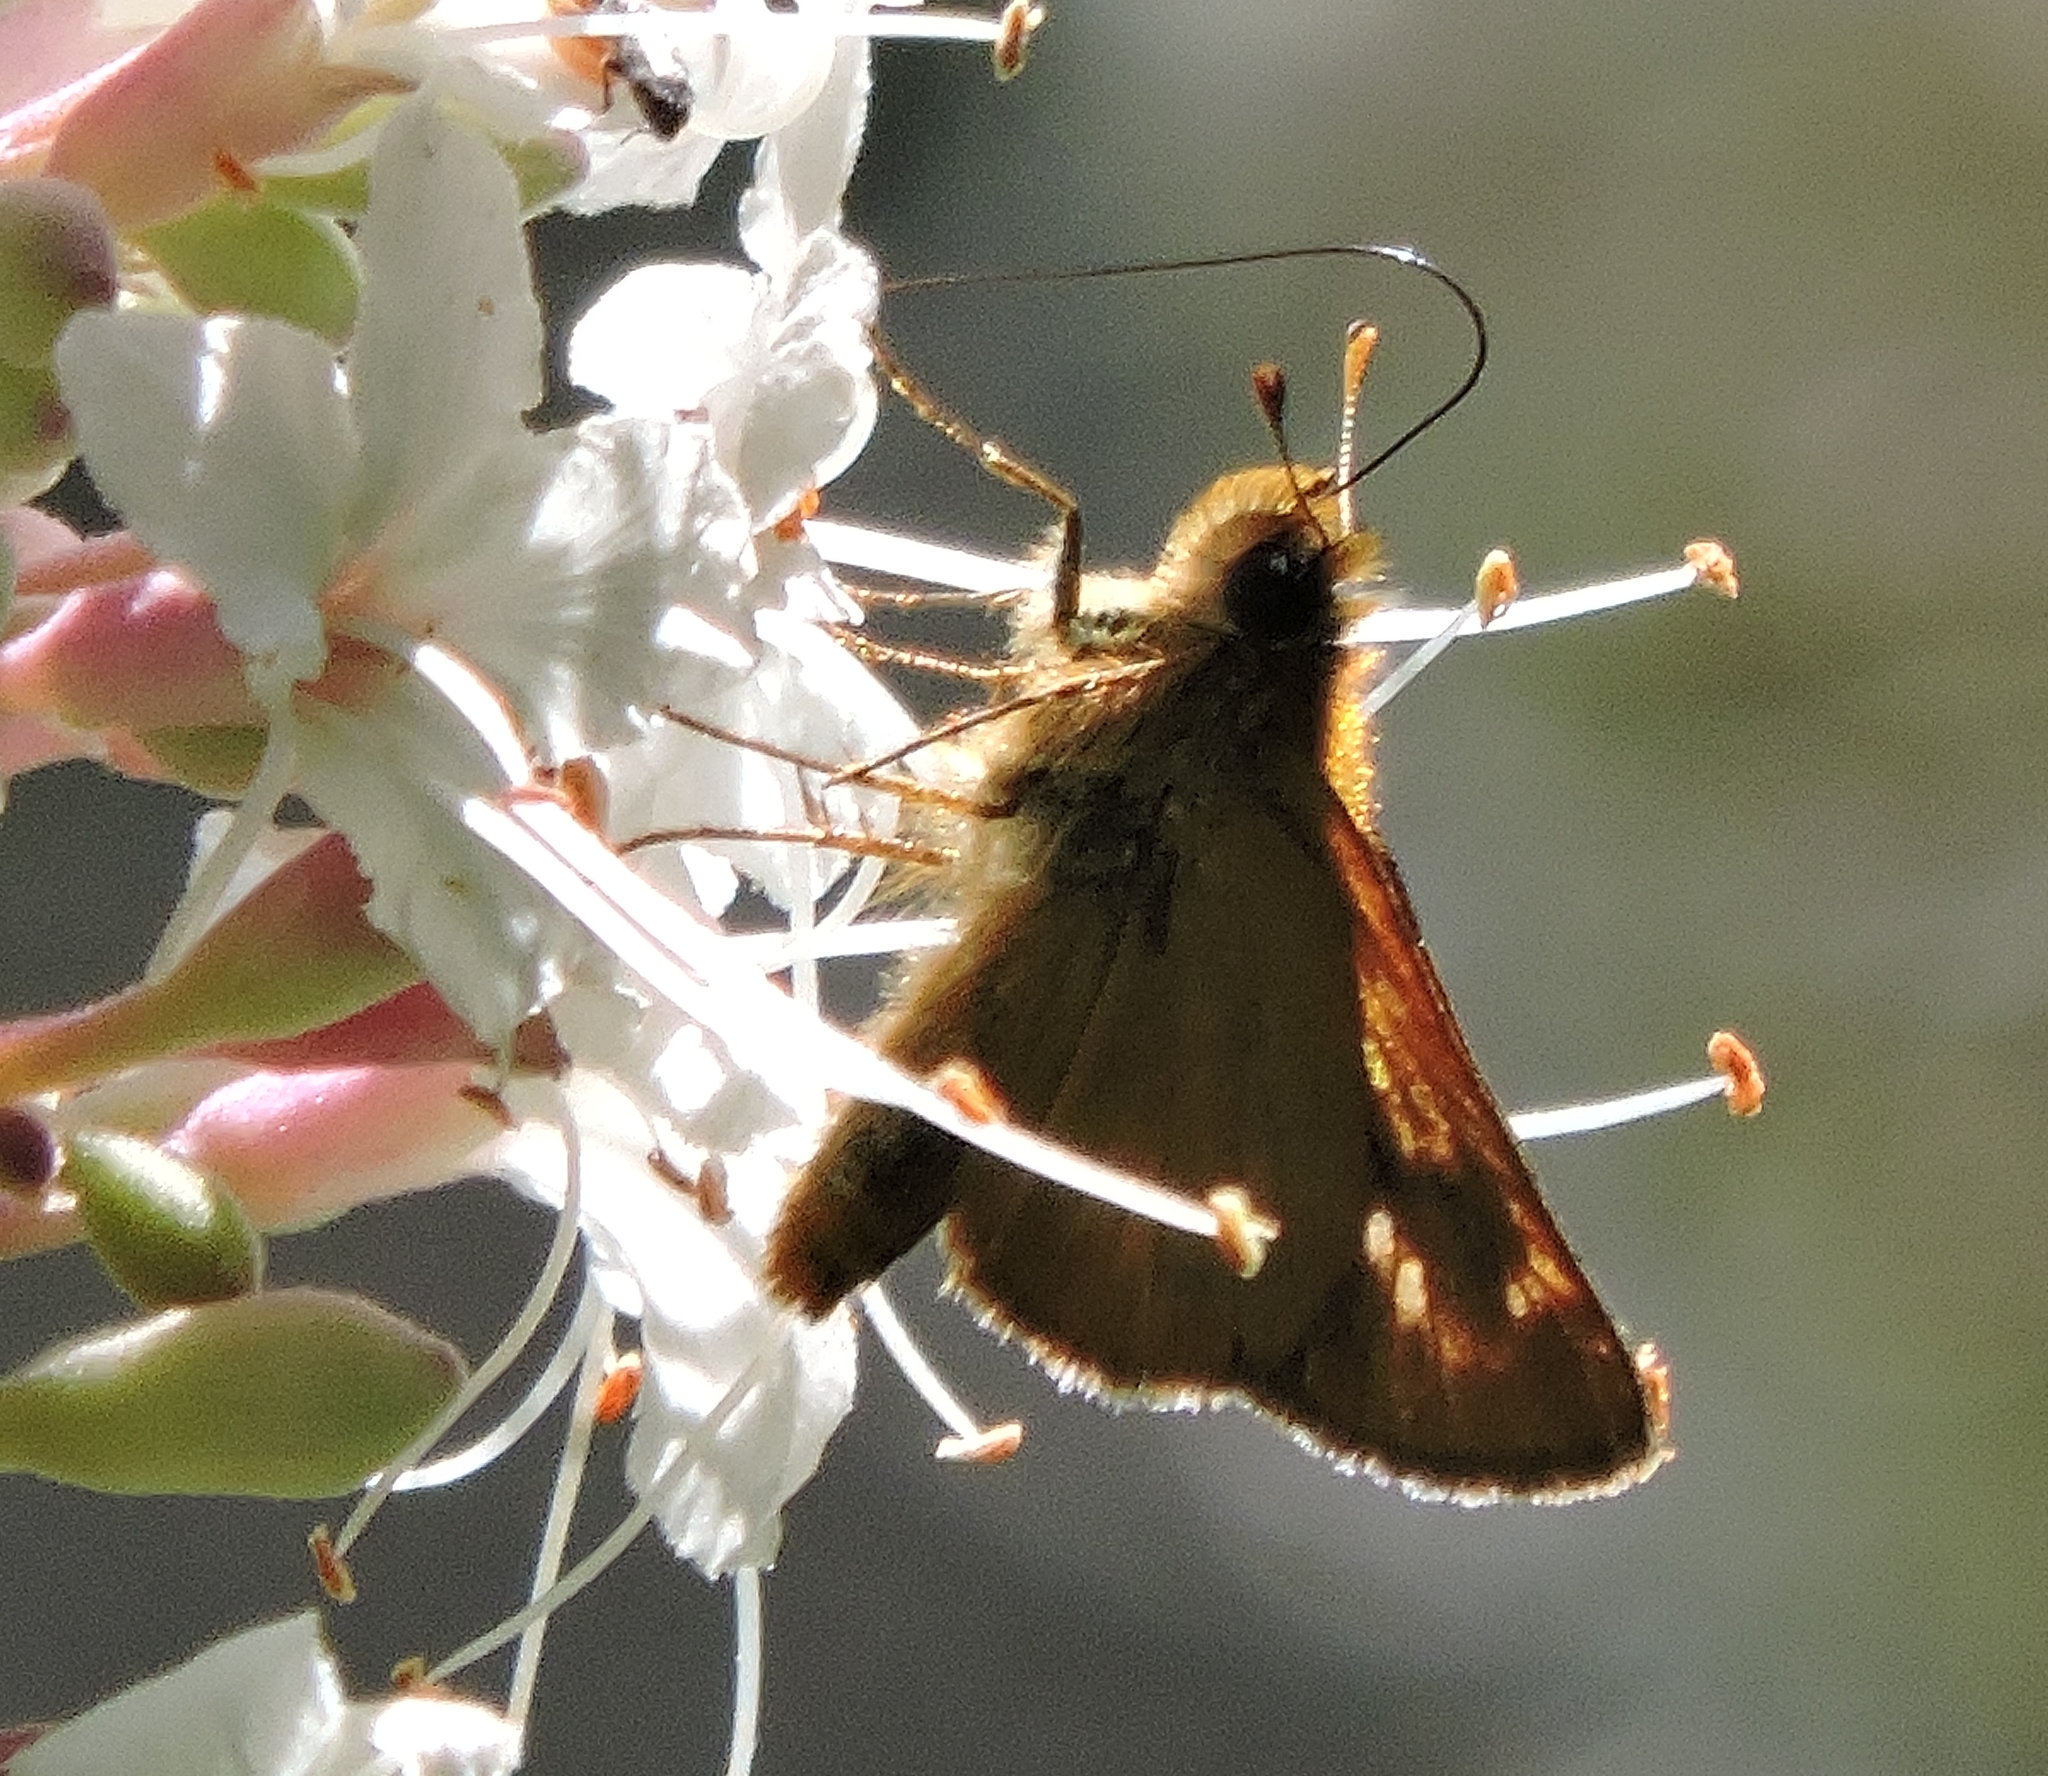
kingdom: Animalia
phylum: Arthropoda
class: Insecta
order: Lepidoptera
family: Hesperiidae
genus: Ochlodes
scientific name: Ochlodes agricola
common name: Rural skipper
